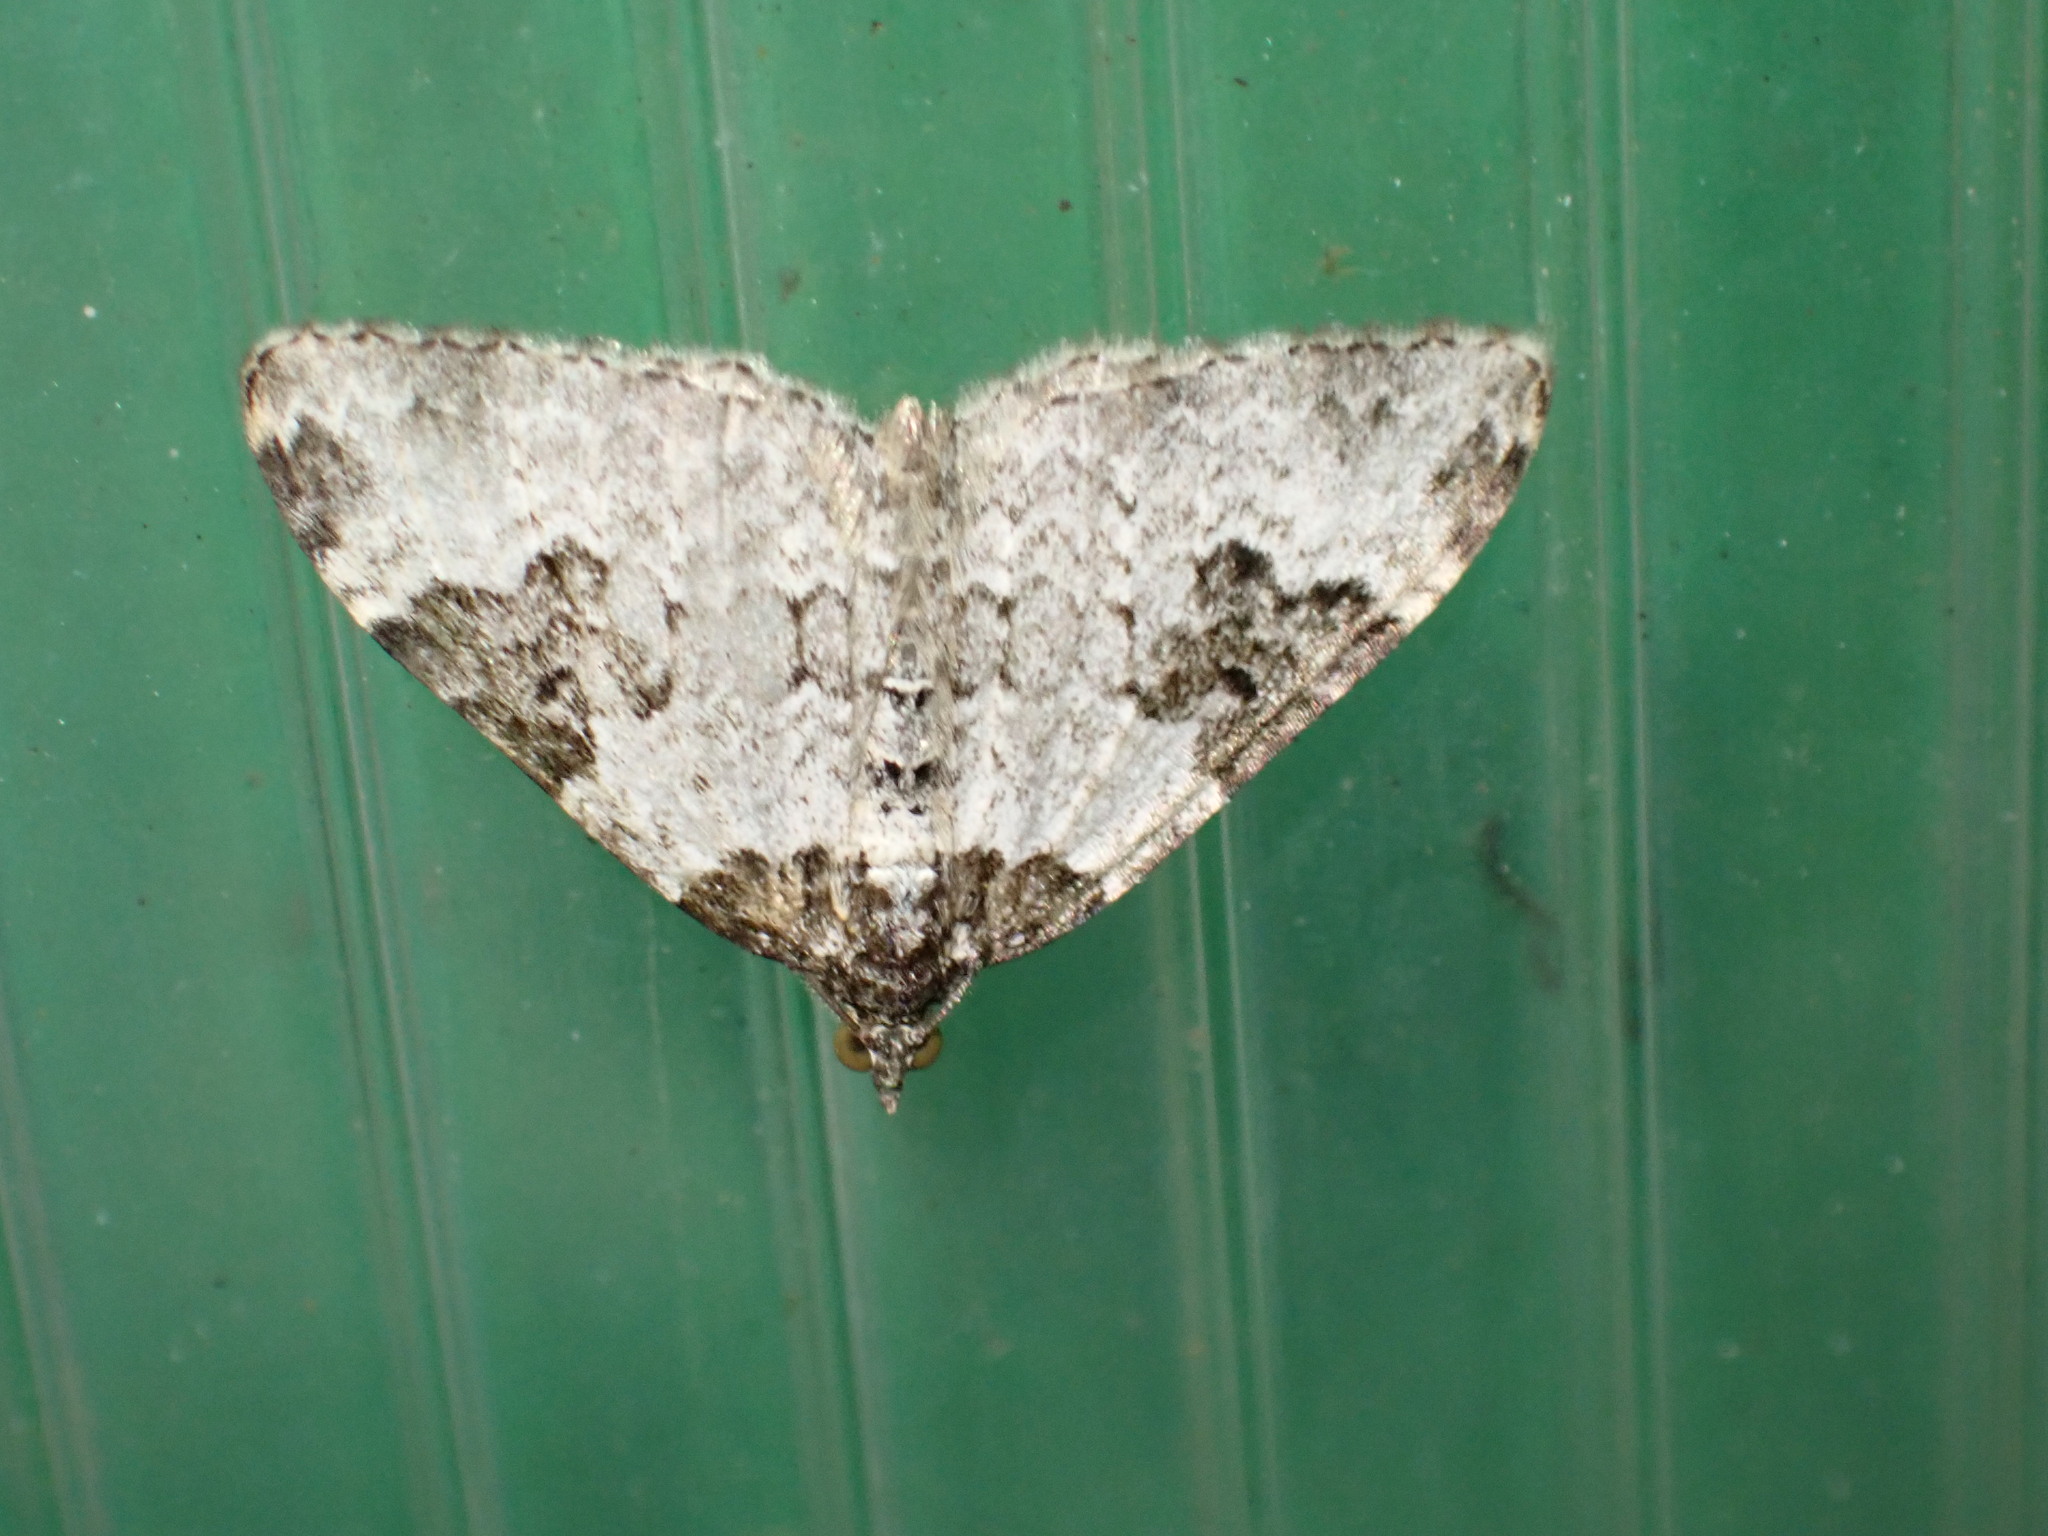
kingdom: Animalia
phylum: Arthropoda
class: Insecta
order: Lepidoptera
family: Geometridae
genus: Xanthorhoe
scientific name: Xanthorhoe fluctuata
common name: Garden carpet
